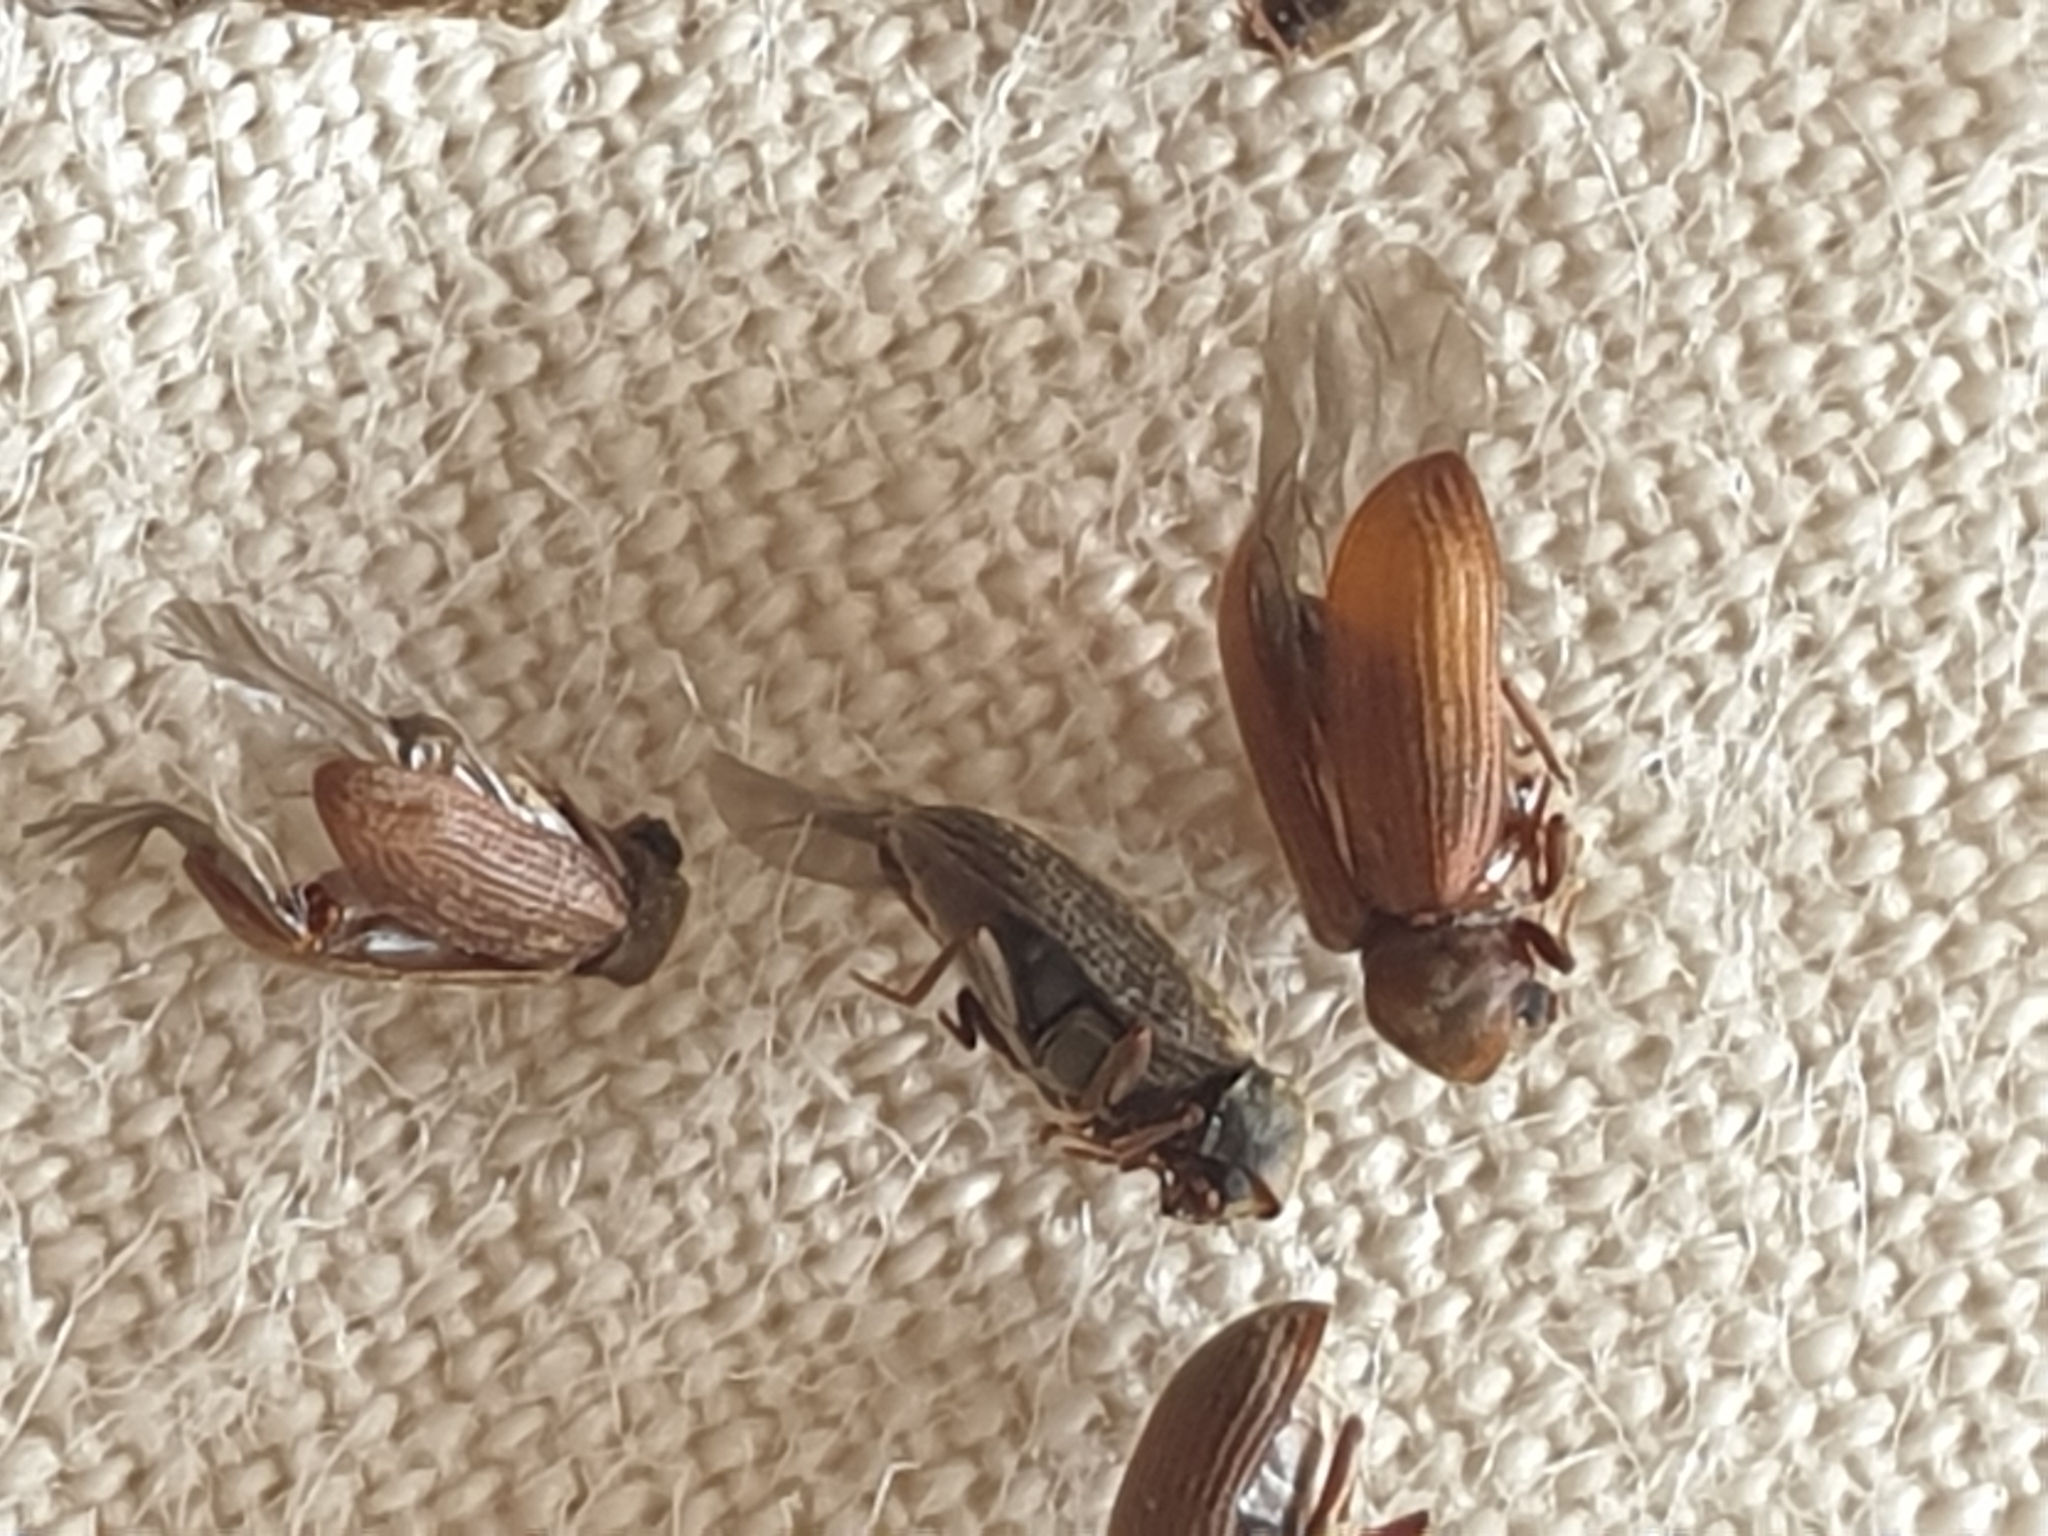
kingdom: Animalia
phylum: Arthropoda
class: Insecta
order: Coleoptera
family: Anobiidae
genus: Anobium
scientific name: Anobium punctatum
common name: Furniture beetle
